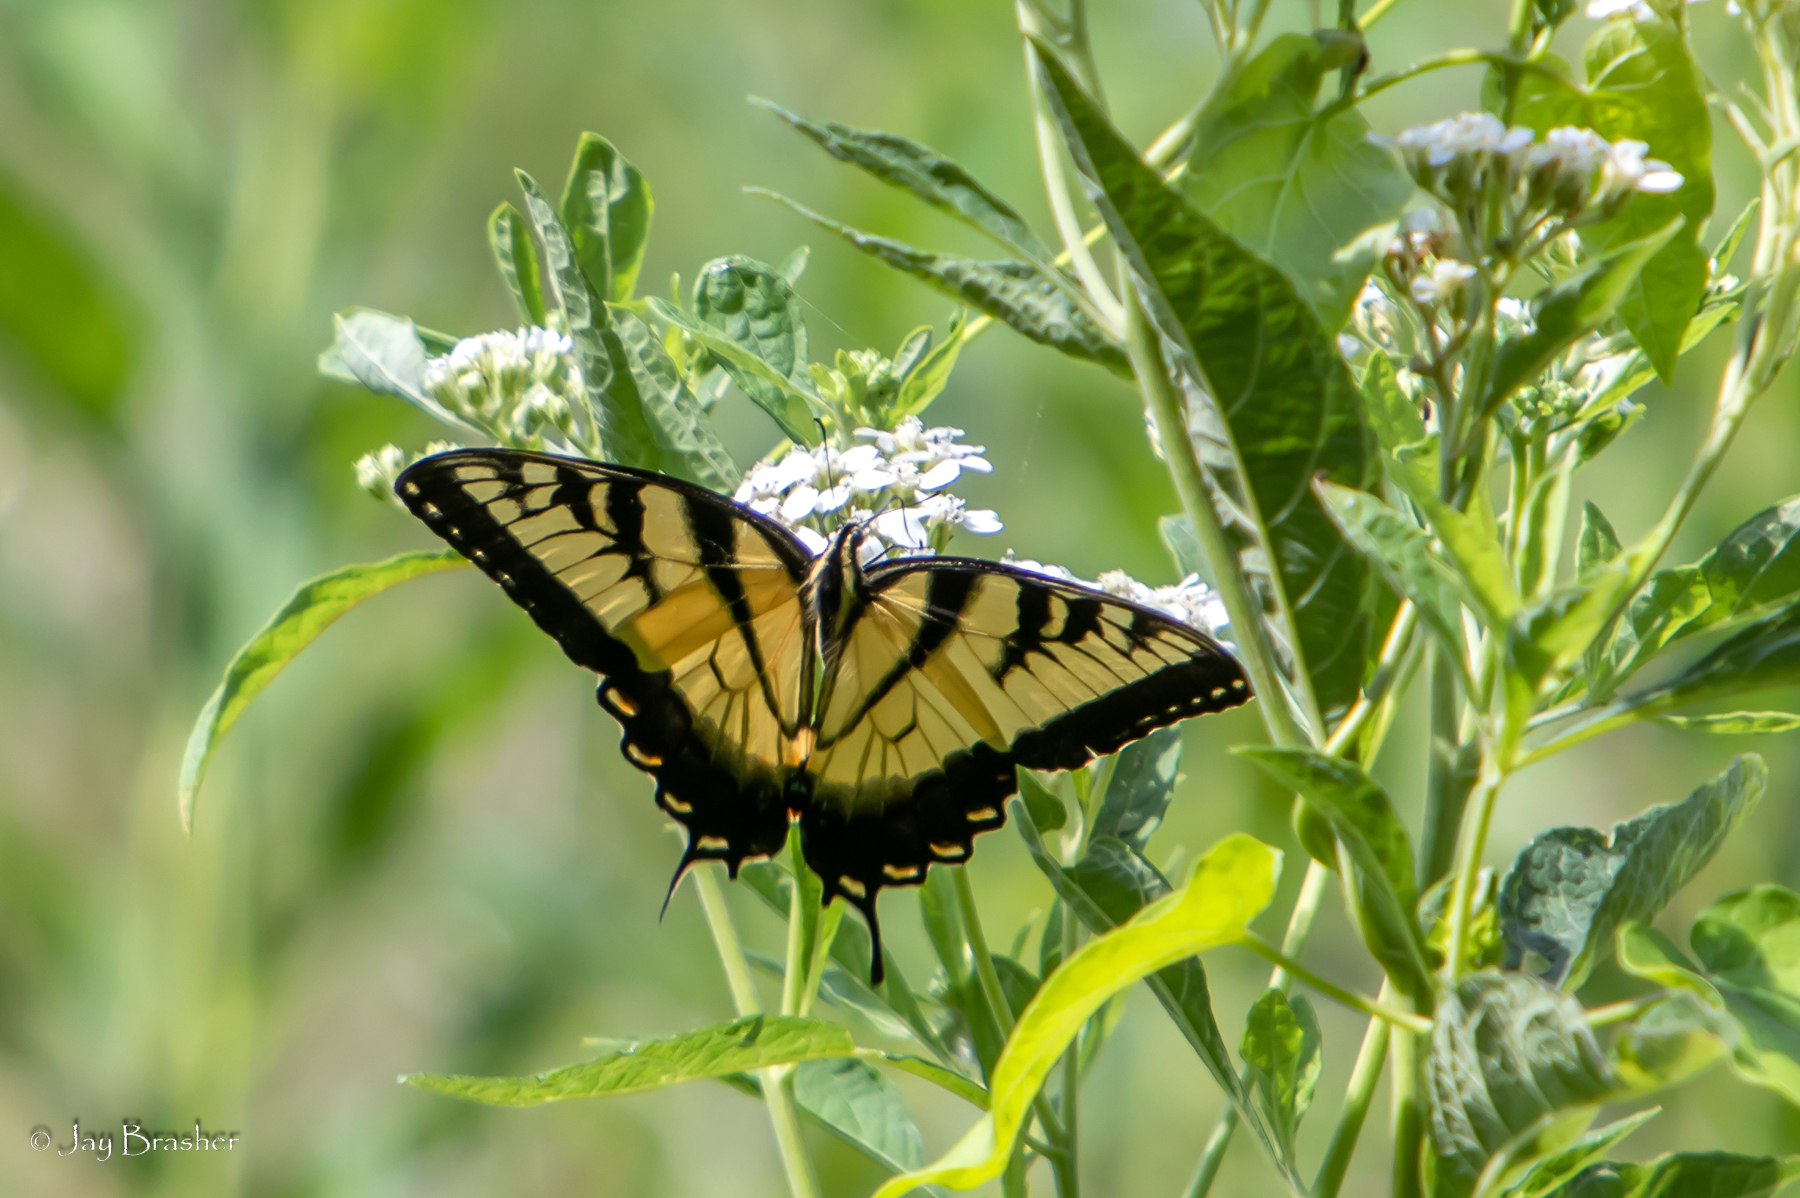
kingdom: Animalia
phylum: Arthropoda
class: Insecta
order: Lepidoptera
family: Papilionidae
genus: Papilio
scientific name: Papilio glaucus
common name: Tiger swallowtail
